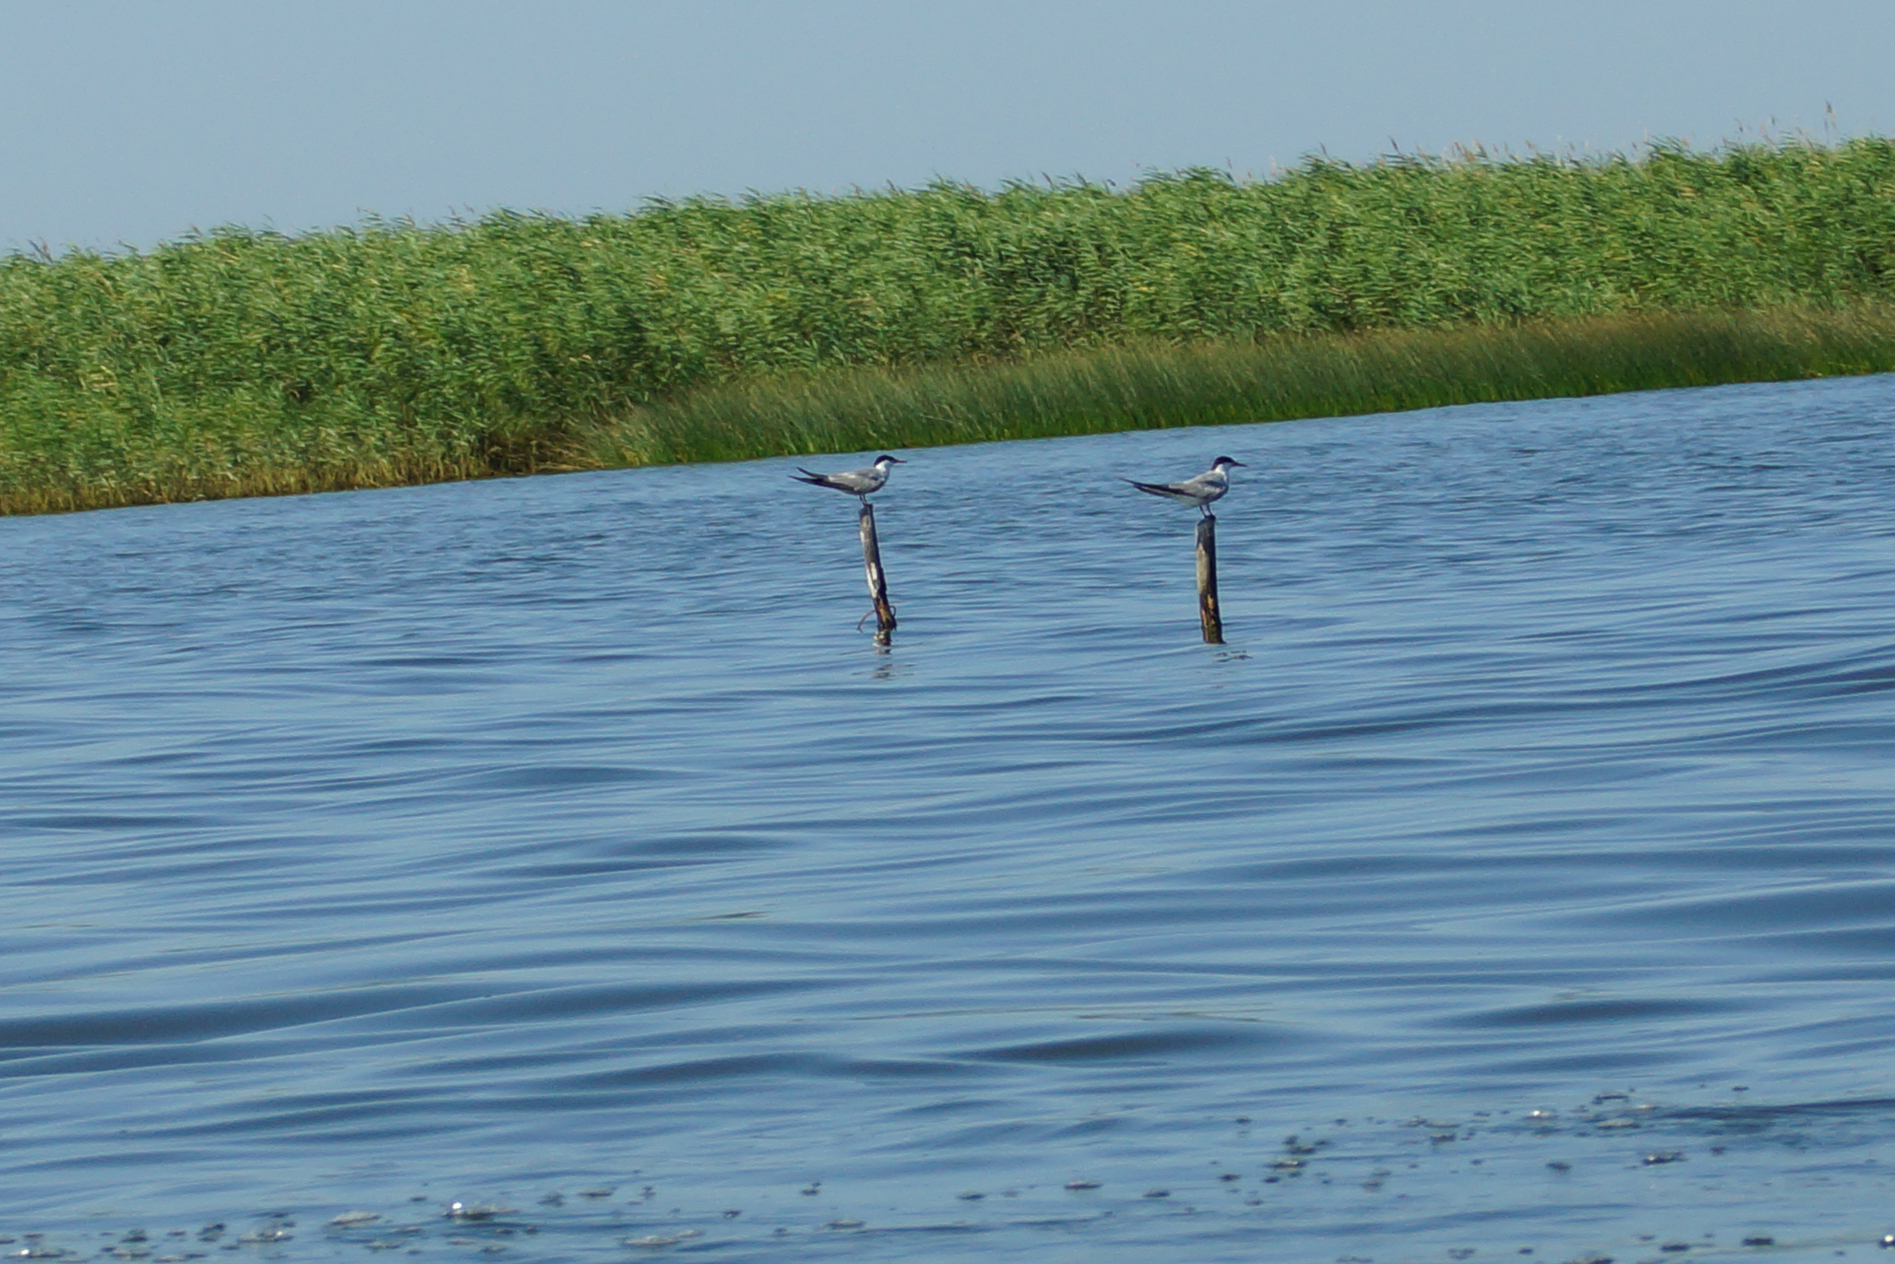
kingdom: Animalia
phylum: Chordata
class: Aves
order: Charadriiformes
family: Laridae
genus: Sterna
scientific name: Sterna hirundo
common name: Common tern
